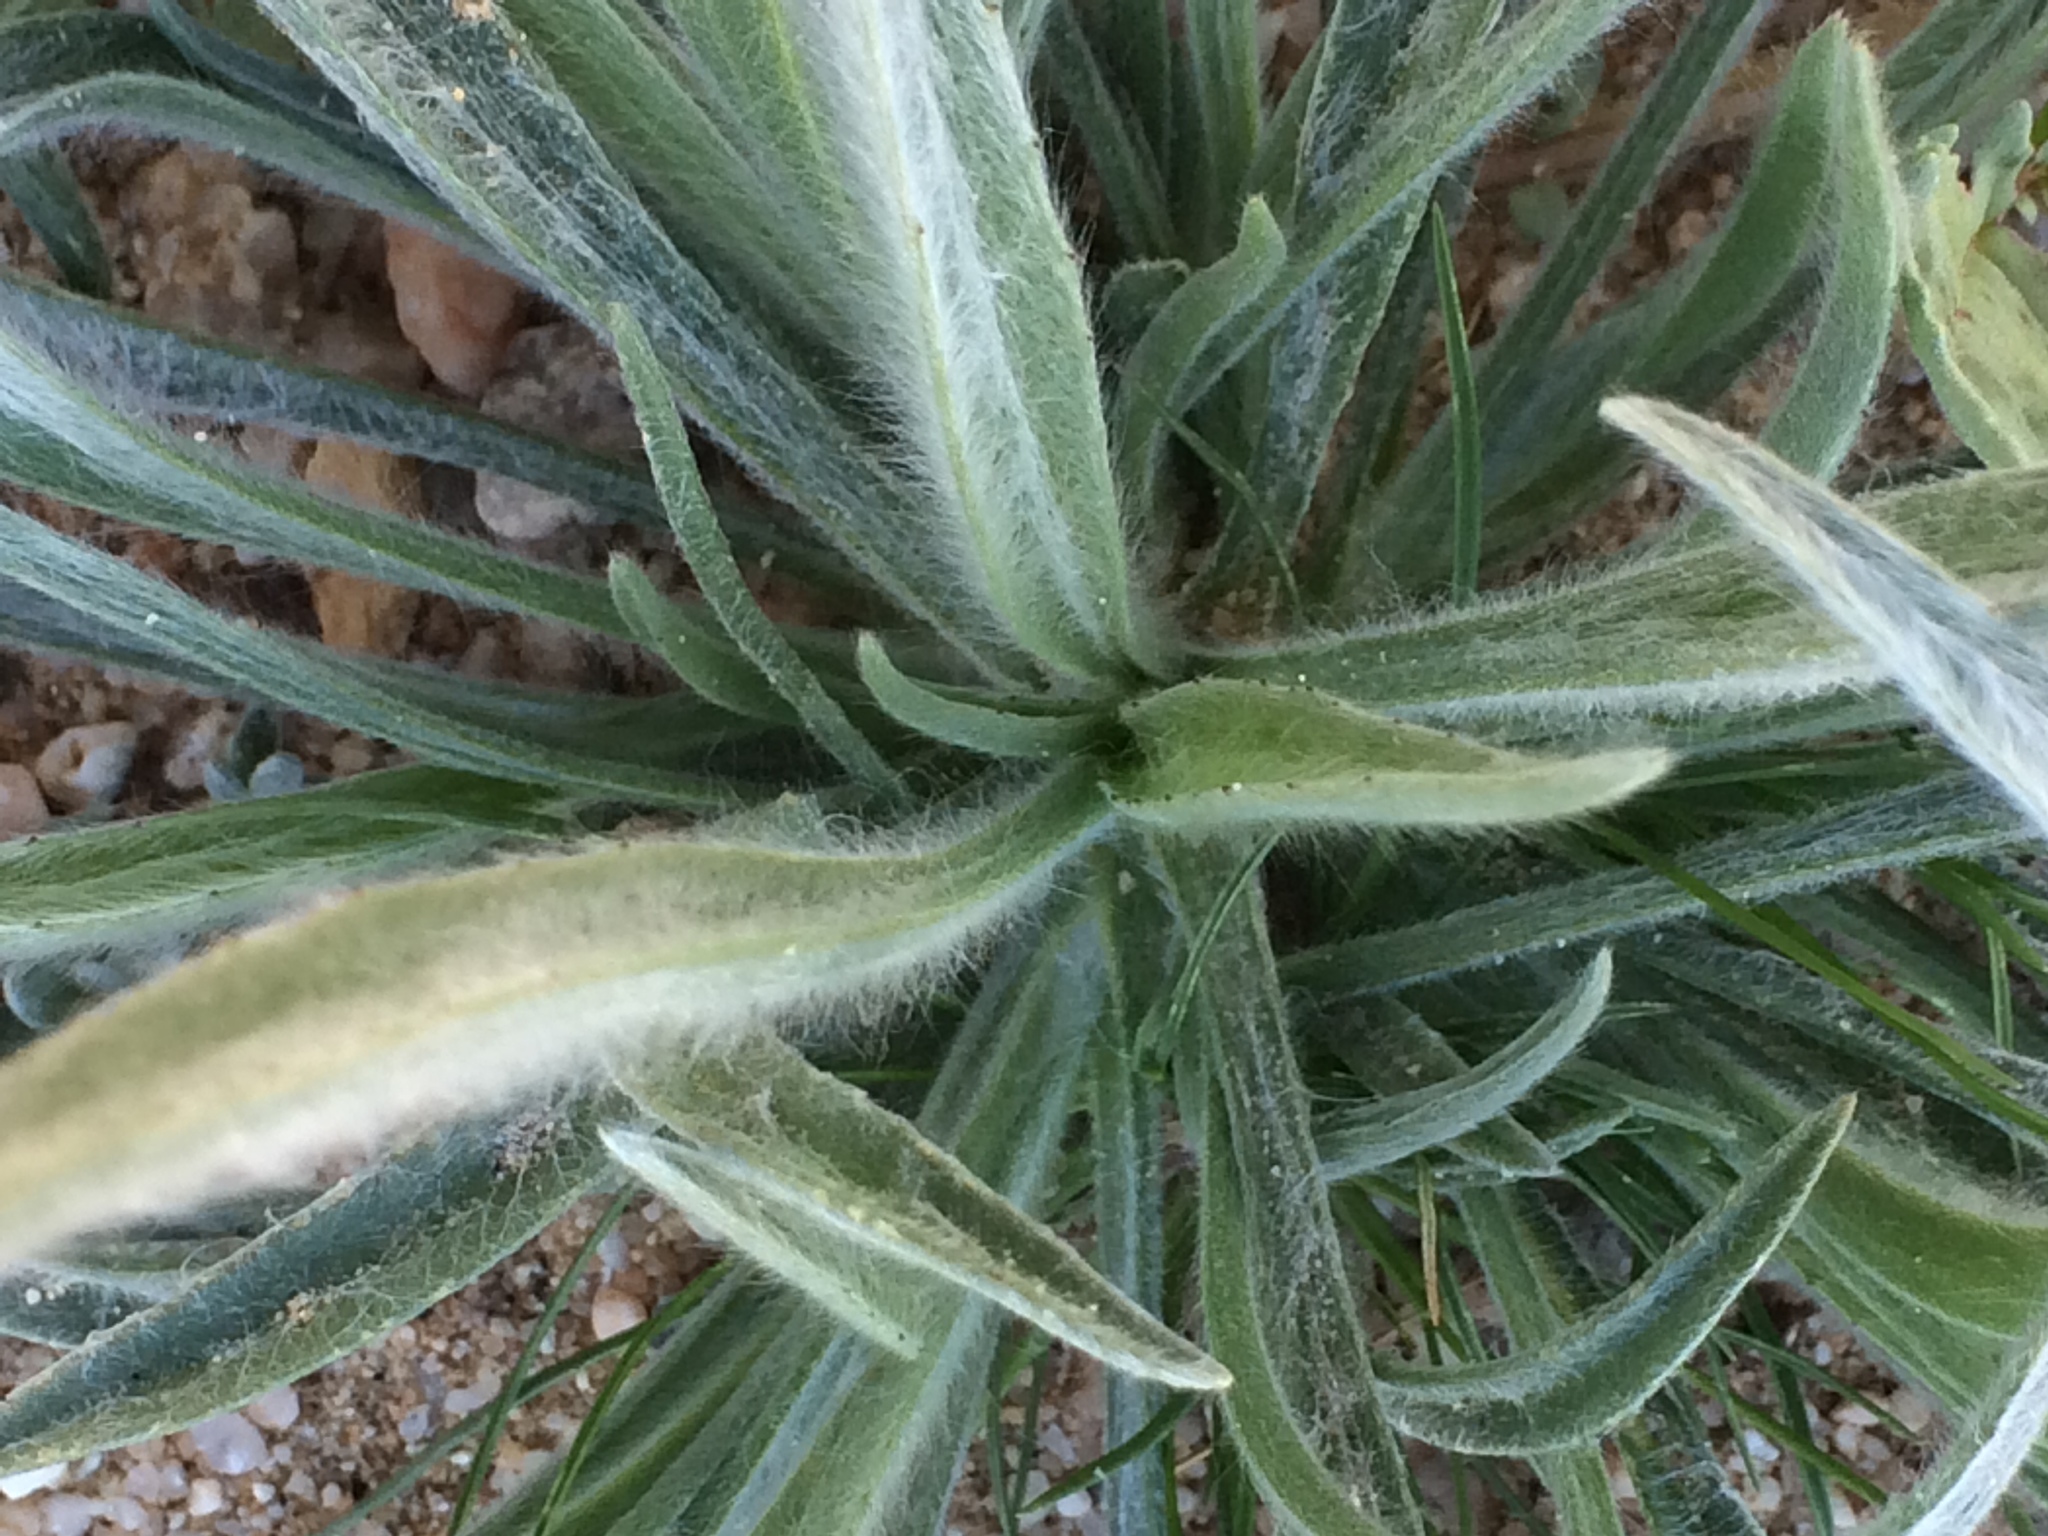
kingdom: Plantae
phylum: Tracheophyta
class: Magnoliopsida
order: Lamiales
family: Plantaginaceae
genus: Plantago
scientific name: Plantago ovata
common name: Blond plantain
